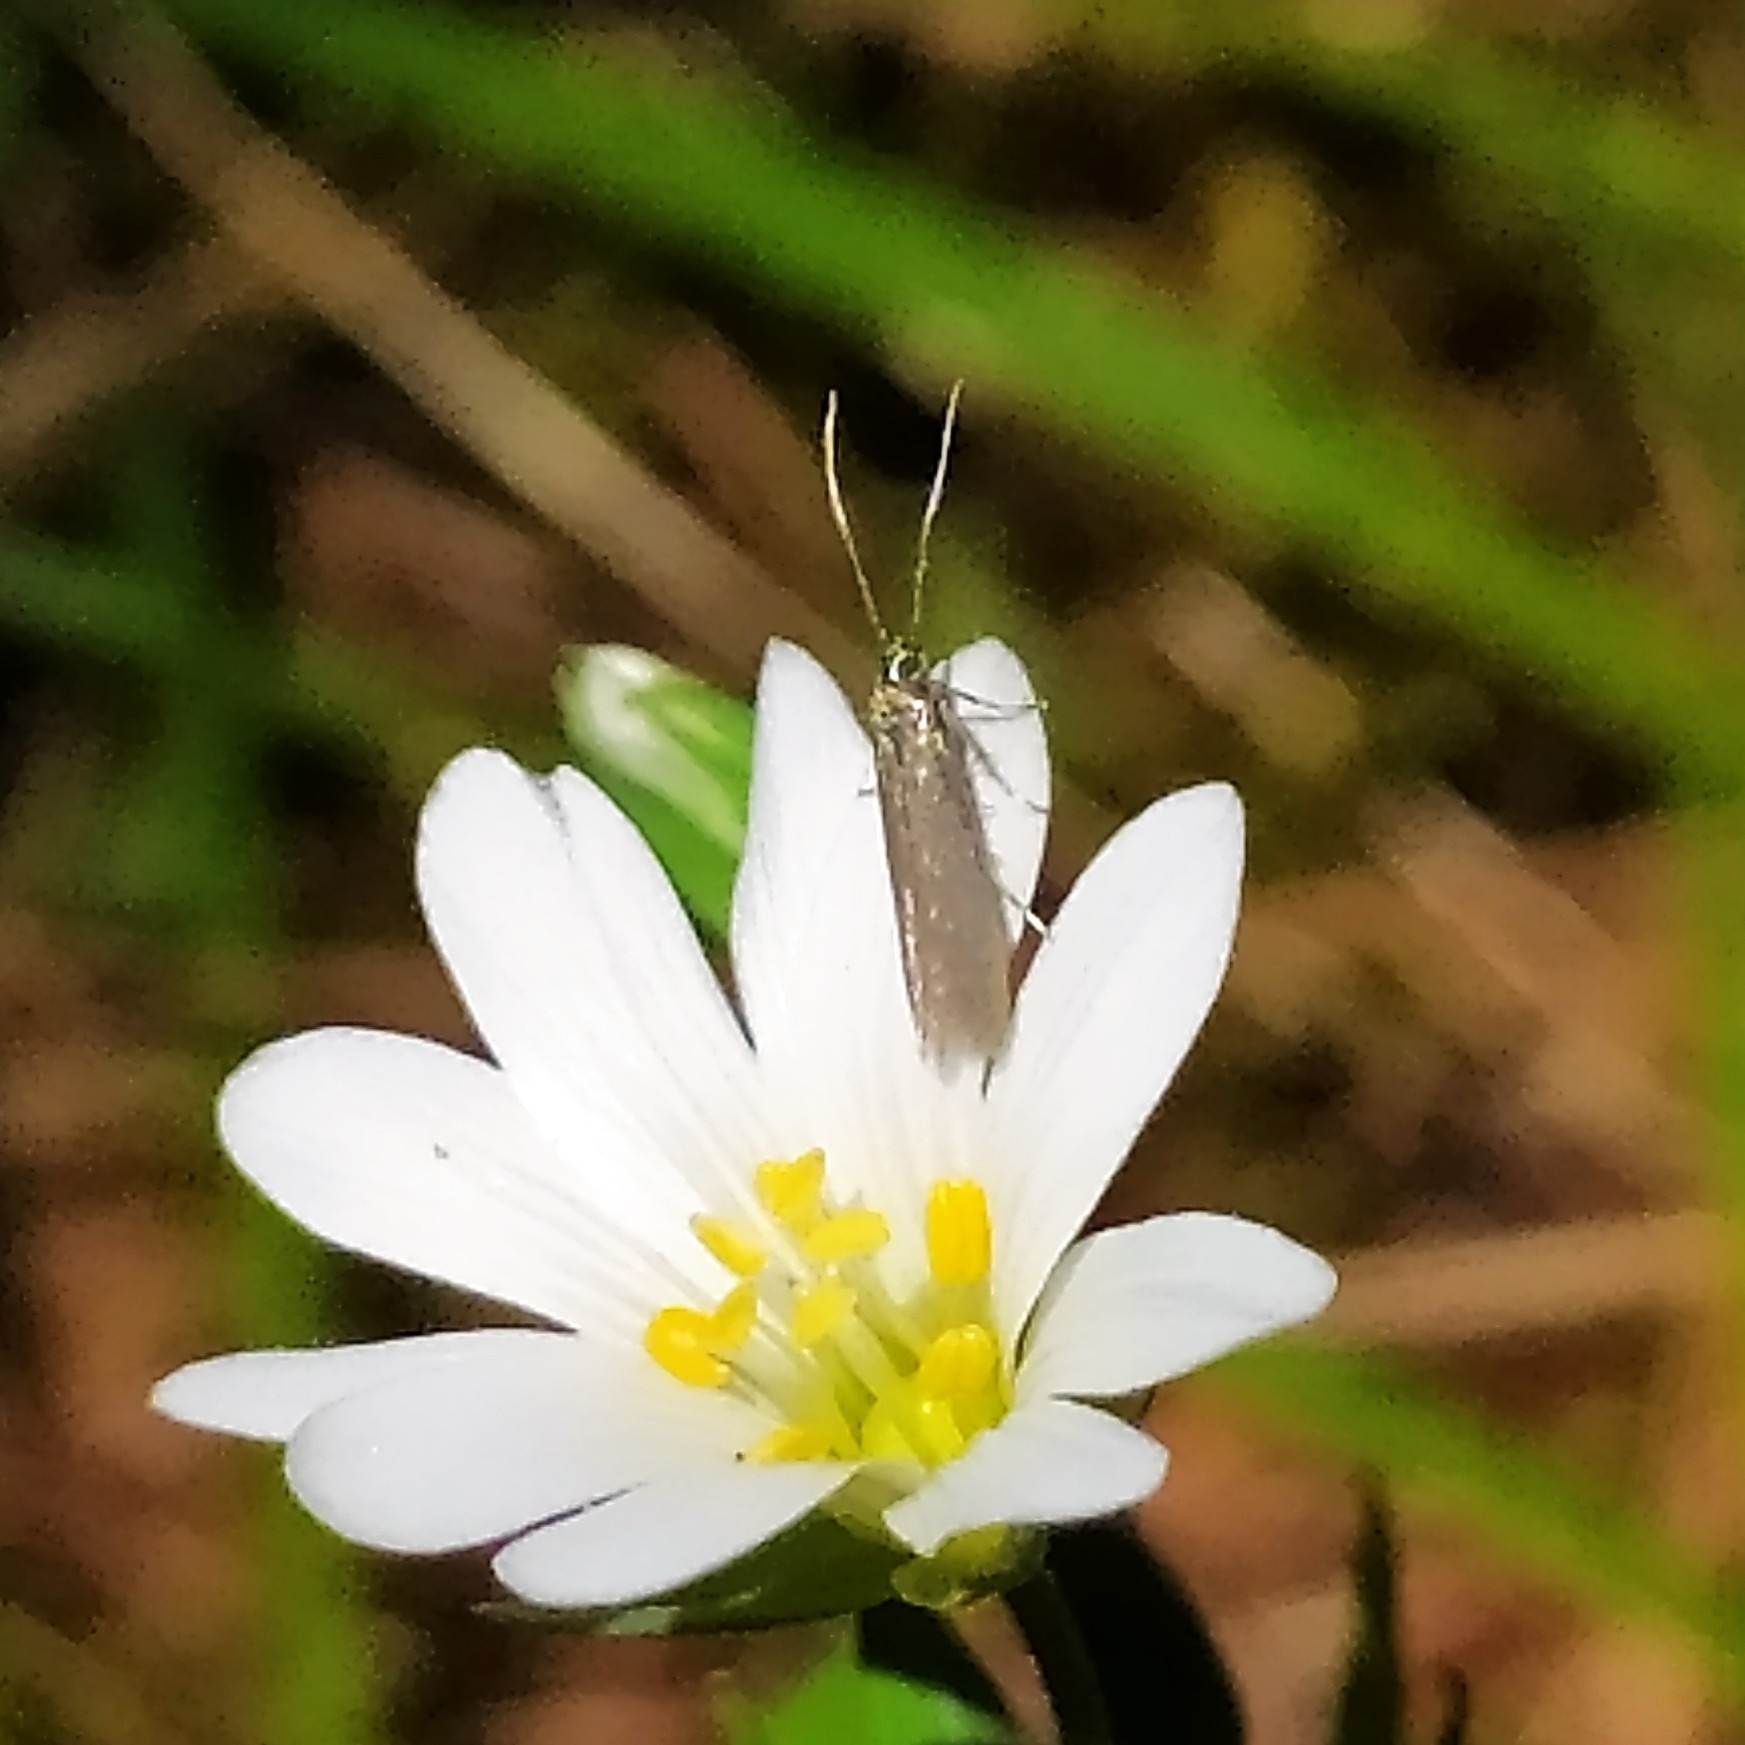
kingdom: Animalia
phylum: Arthropoda
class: Insecta
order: Lepidoptera
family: Coleophoridae
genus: Metriotes
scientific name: Metriotes lutarea
